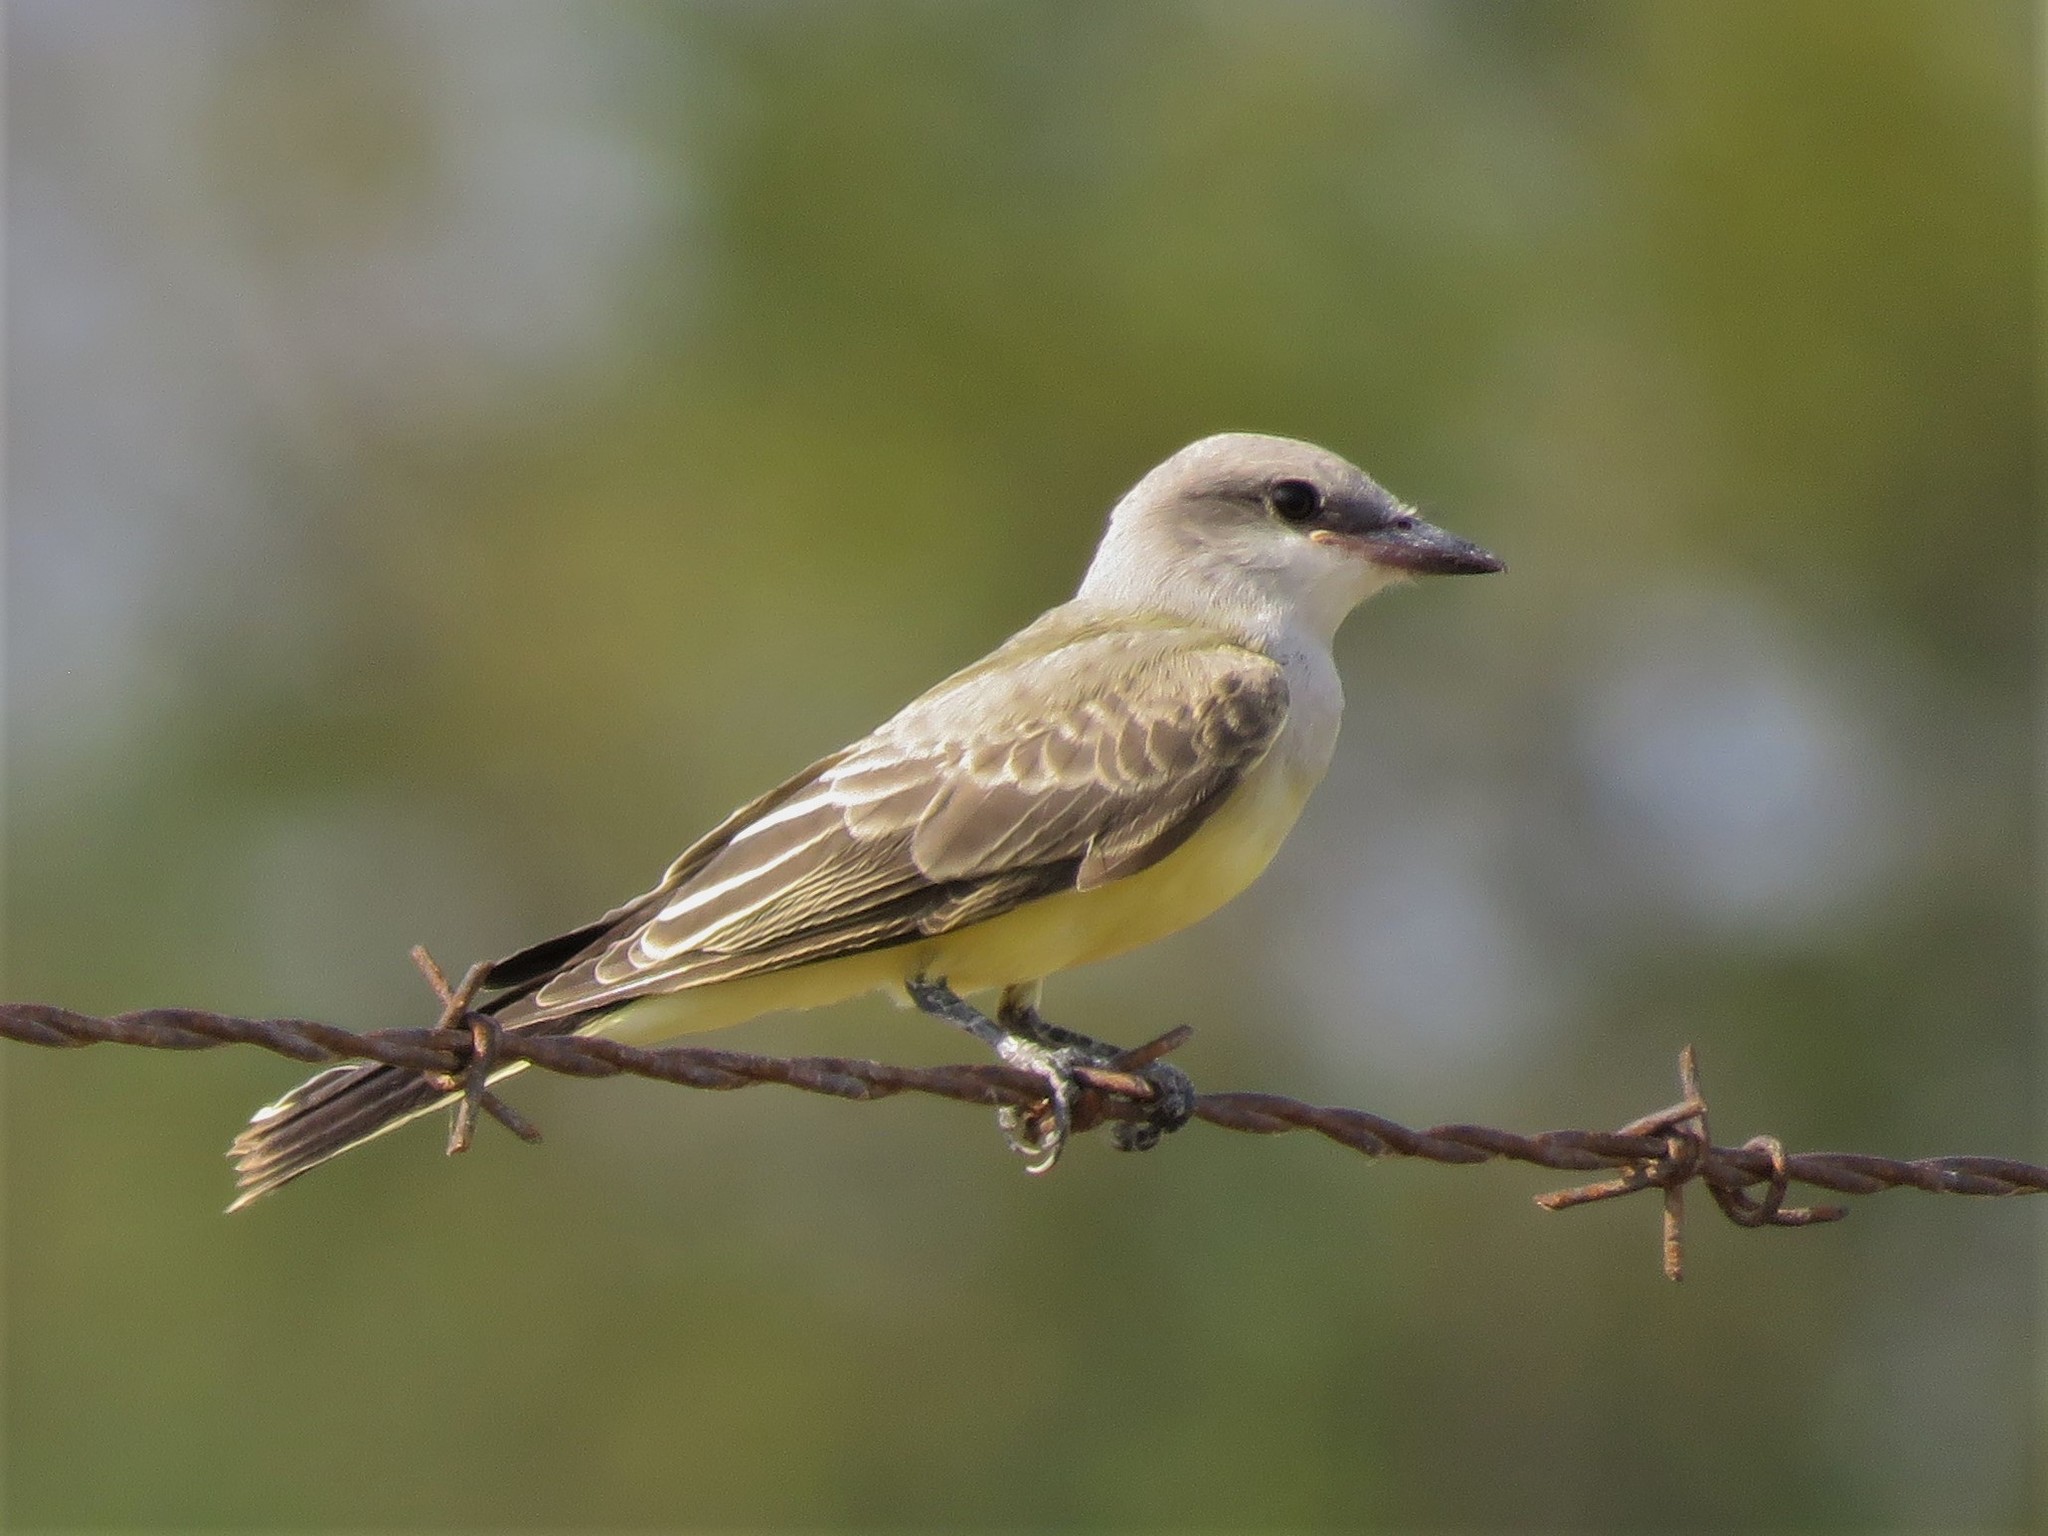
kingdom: Animalia
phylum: Chordata
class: Aves
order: Passeriformes
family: Tyrannidae
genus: Tyrannus
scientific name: Tyrannus verticalis
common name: Western kingbird
